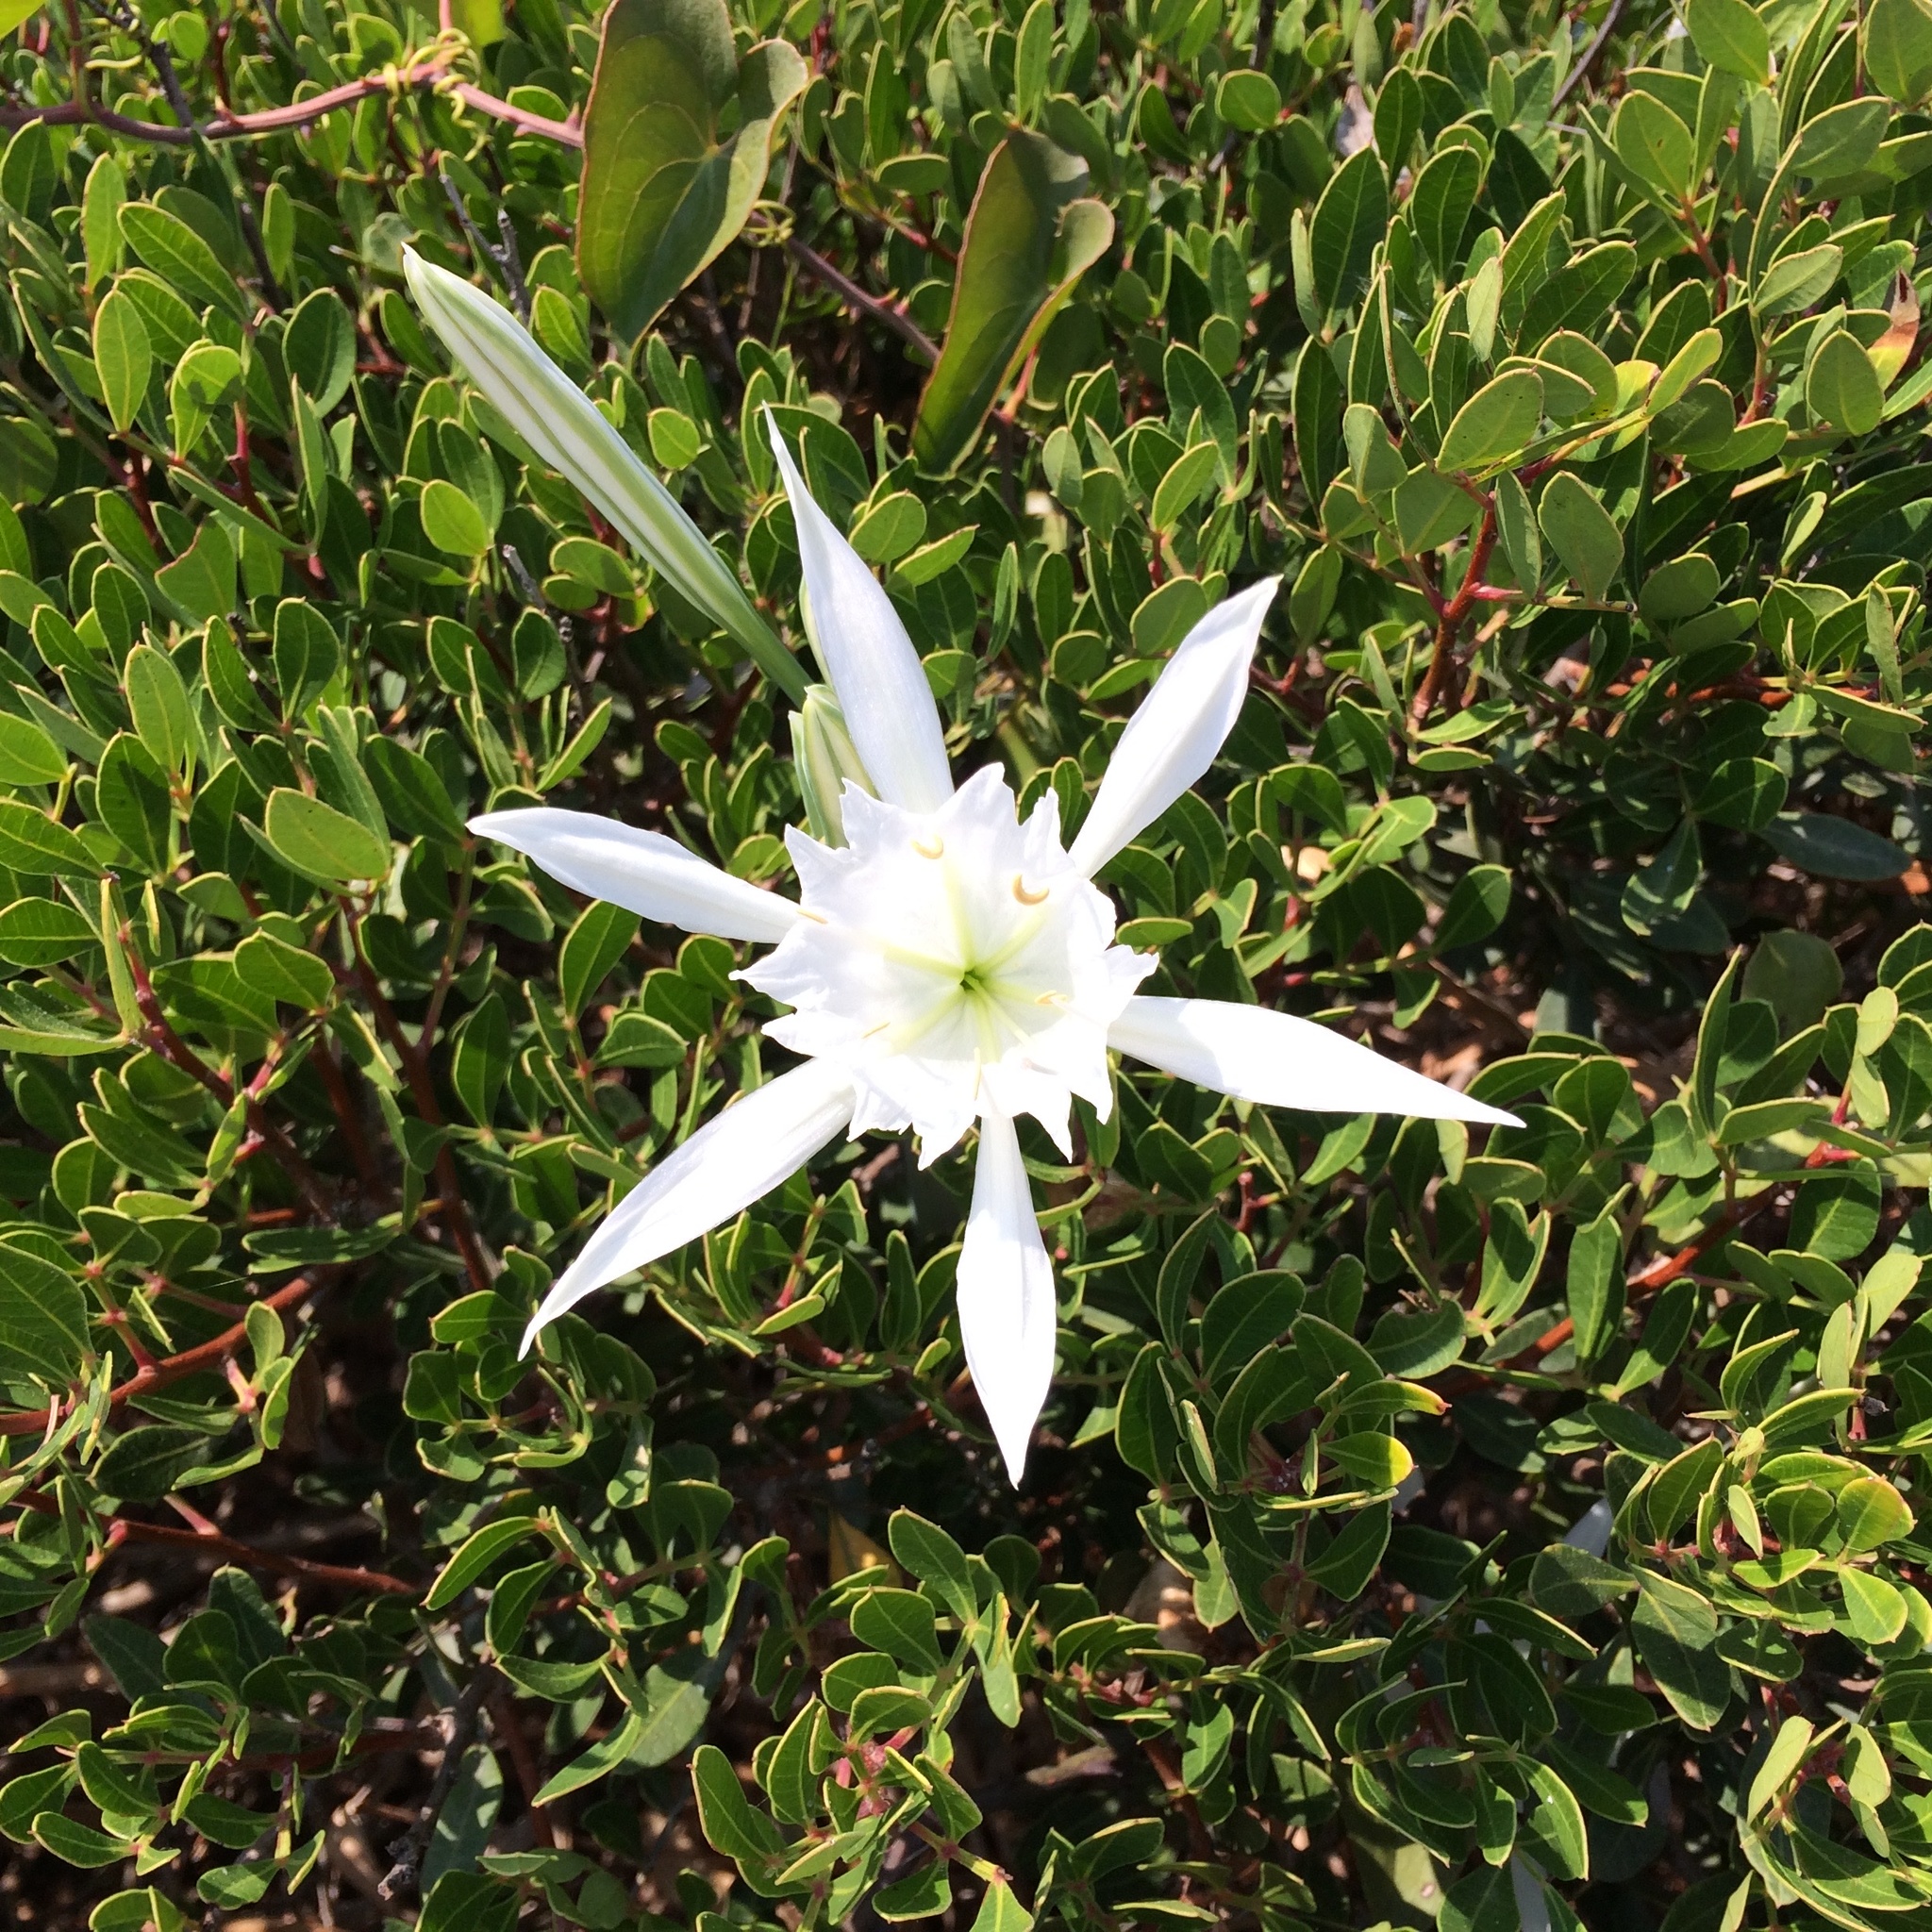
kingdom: Plantae
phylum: Tracheophyta
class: Liliopsida
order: Asparagales
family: Amaryllidaceae
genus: Pancratium
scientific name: Pancratium maritimum
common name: Sea-daffodil
